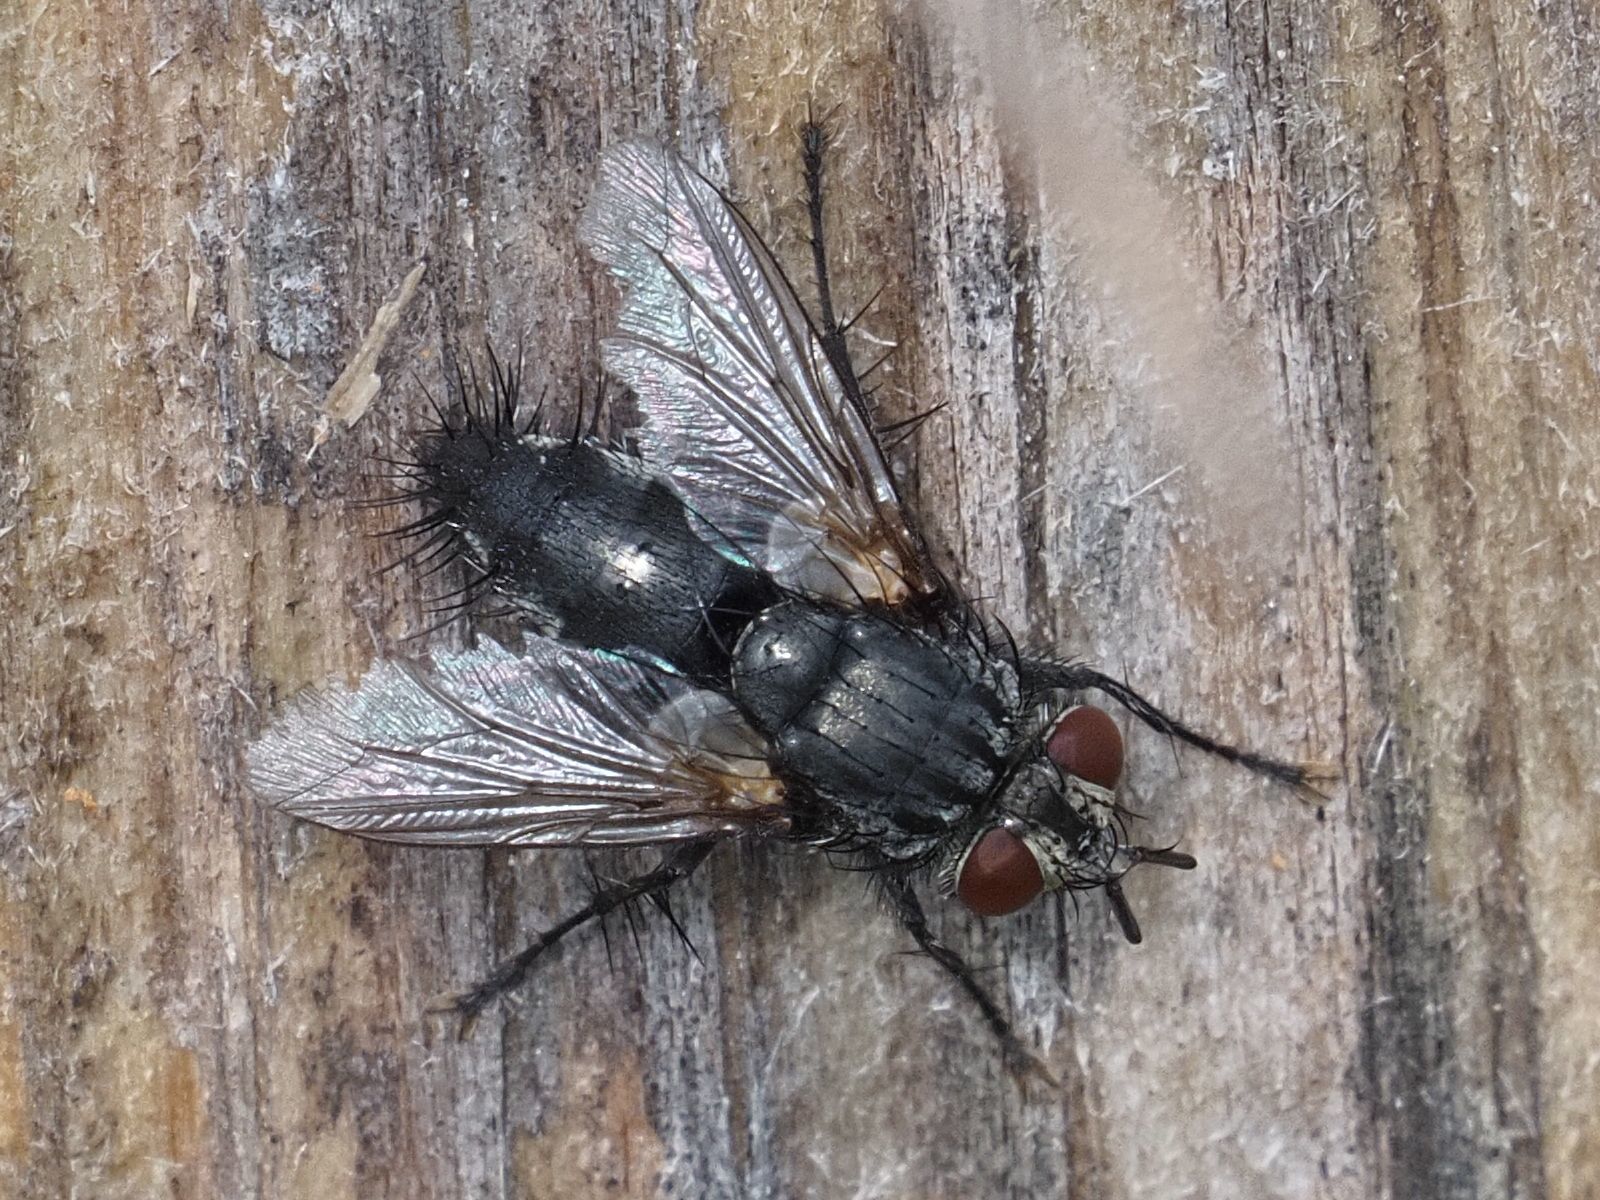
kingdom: Animalia
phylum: Arthropoda
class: Insecta
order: Diptera
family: Tachinidae
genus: Voria
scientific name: Voria ruralis
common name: Parasitic fly
